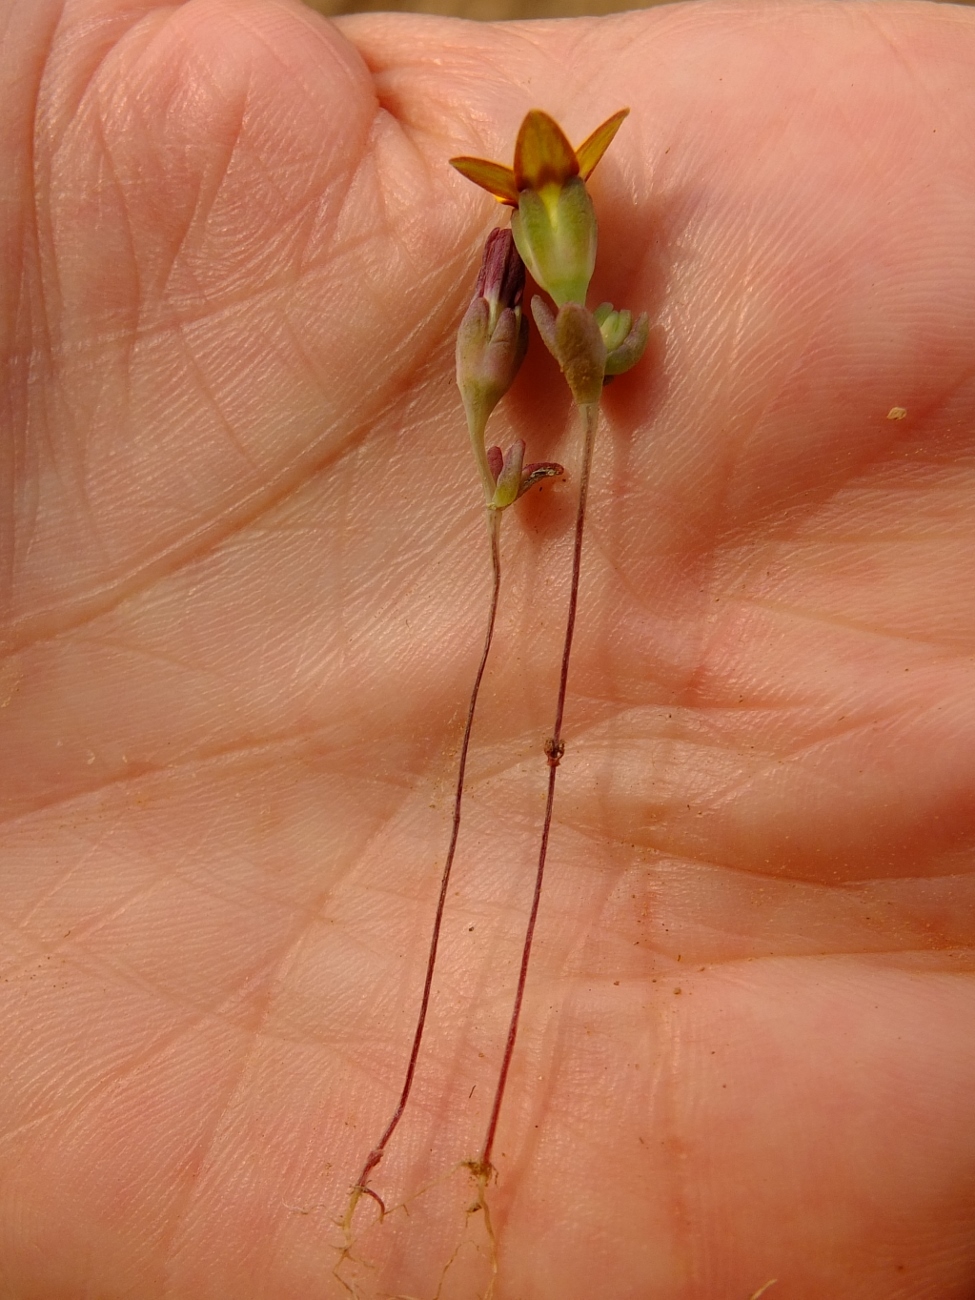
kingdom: Plantae
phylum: Tracheophyta
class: Magnoliopsida
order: Saxifragales
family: Crassulaceae
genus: Crassula
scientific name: Crassula dichotoma
